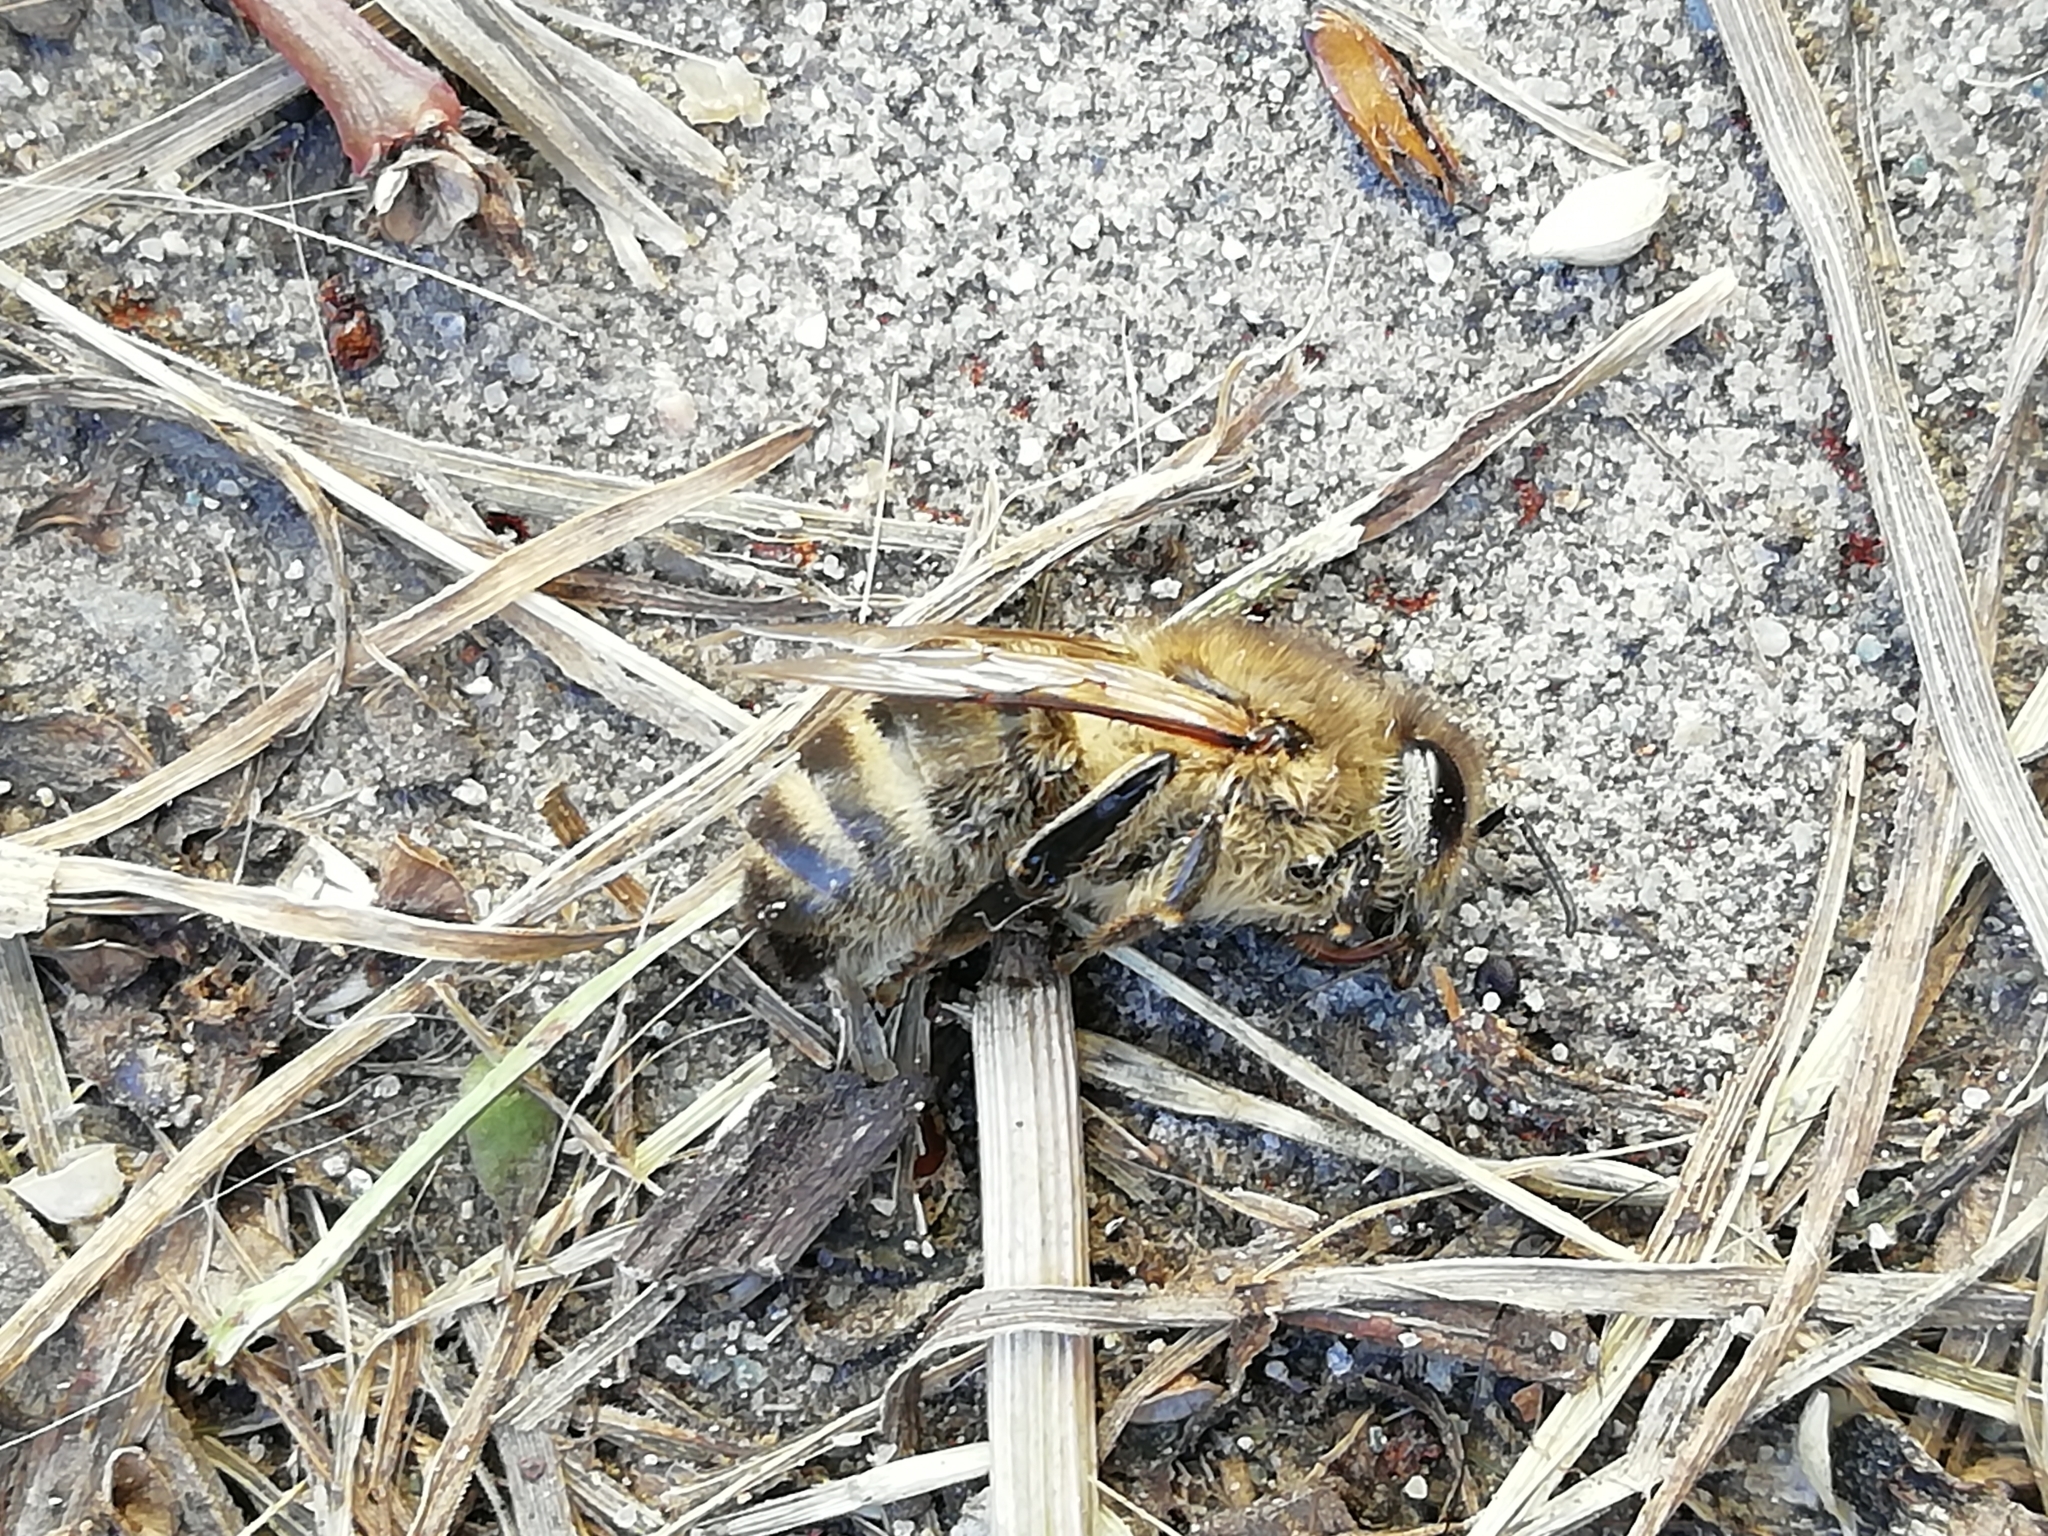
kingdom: Animalia
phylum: Arthropoda
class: Insecta
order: Hymenoptera
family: Apidae
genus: Apis
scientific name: Apis mellifera
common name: Honey bee
